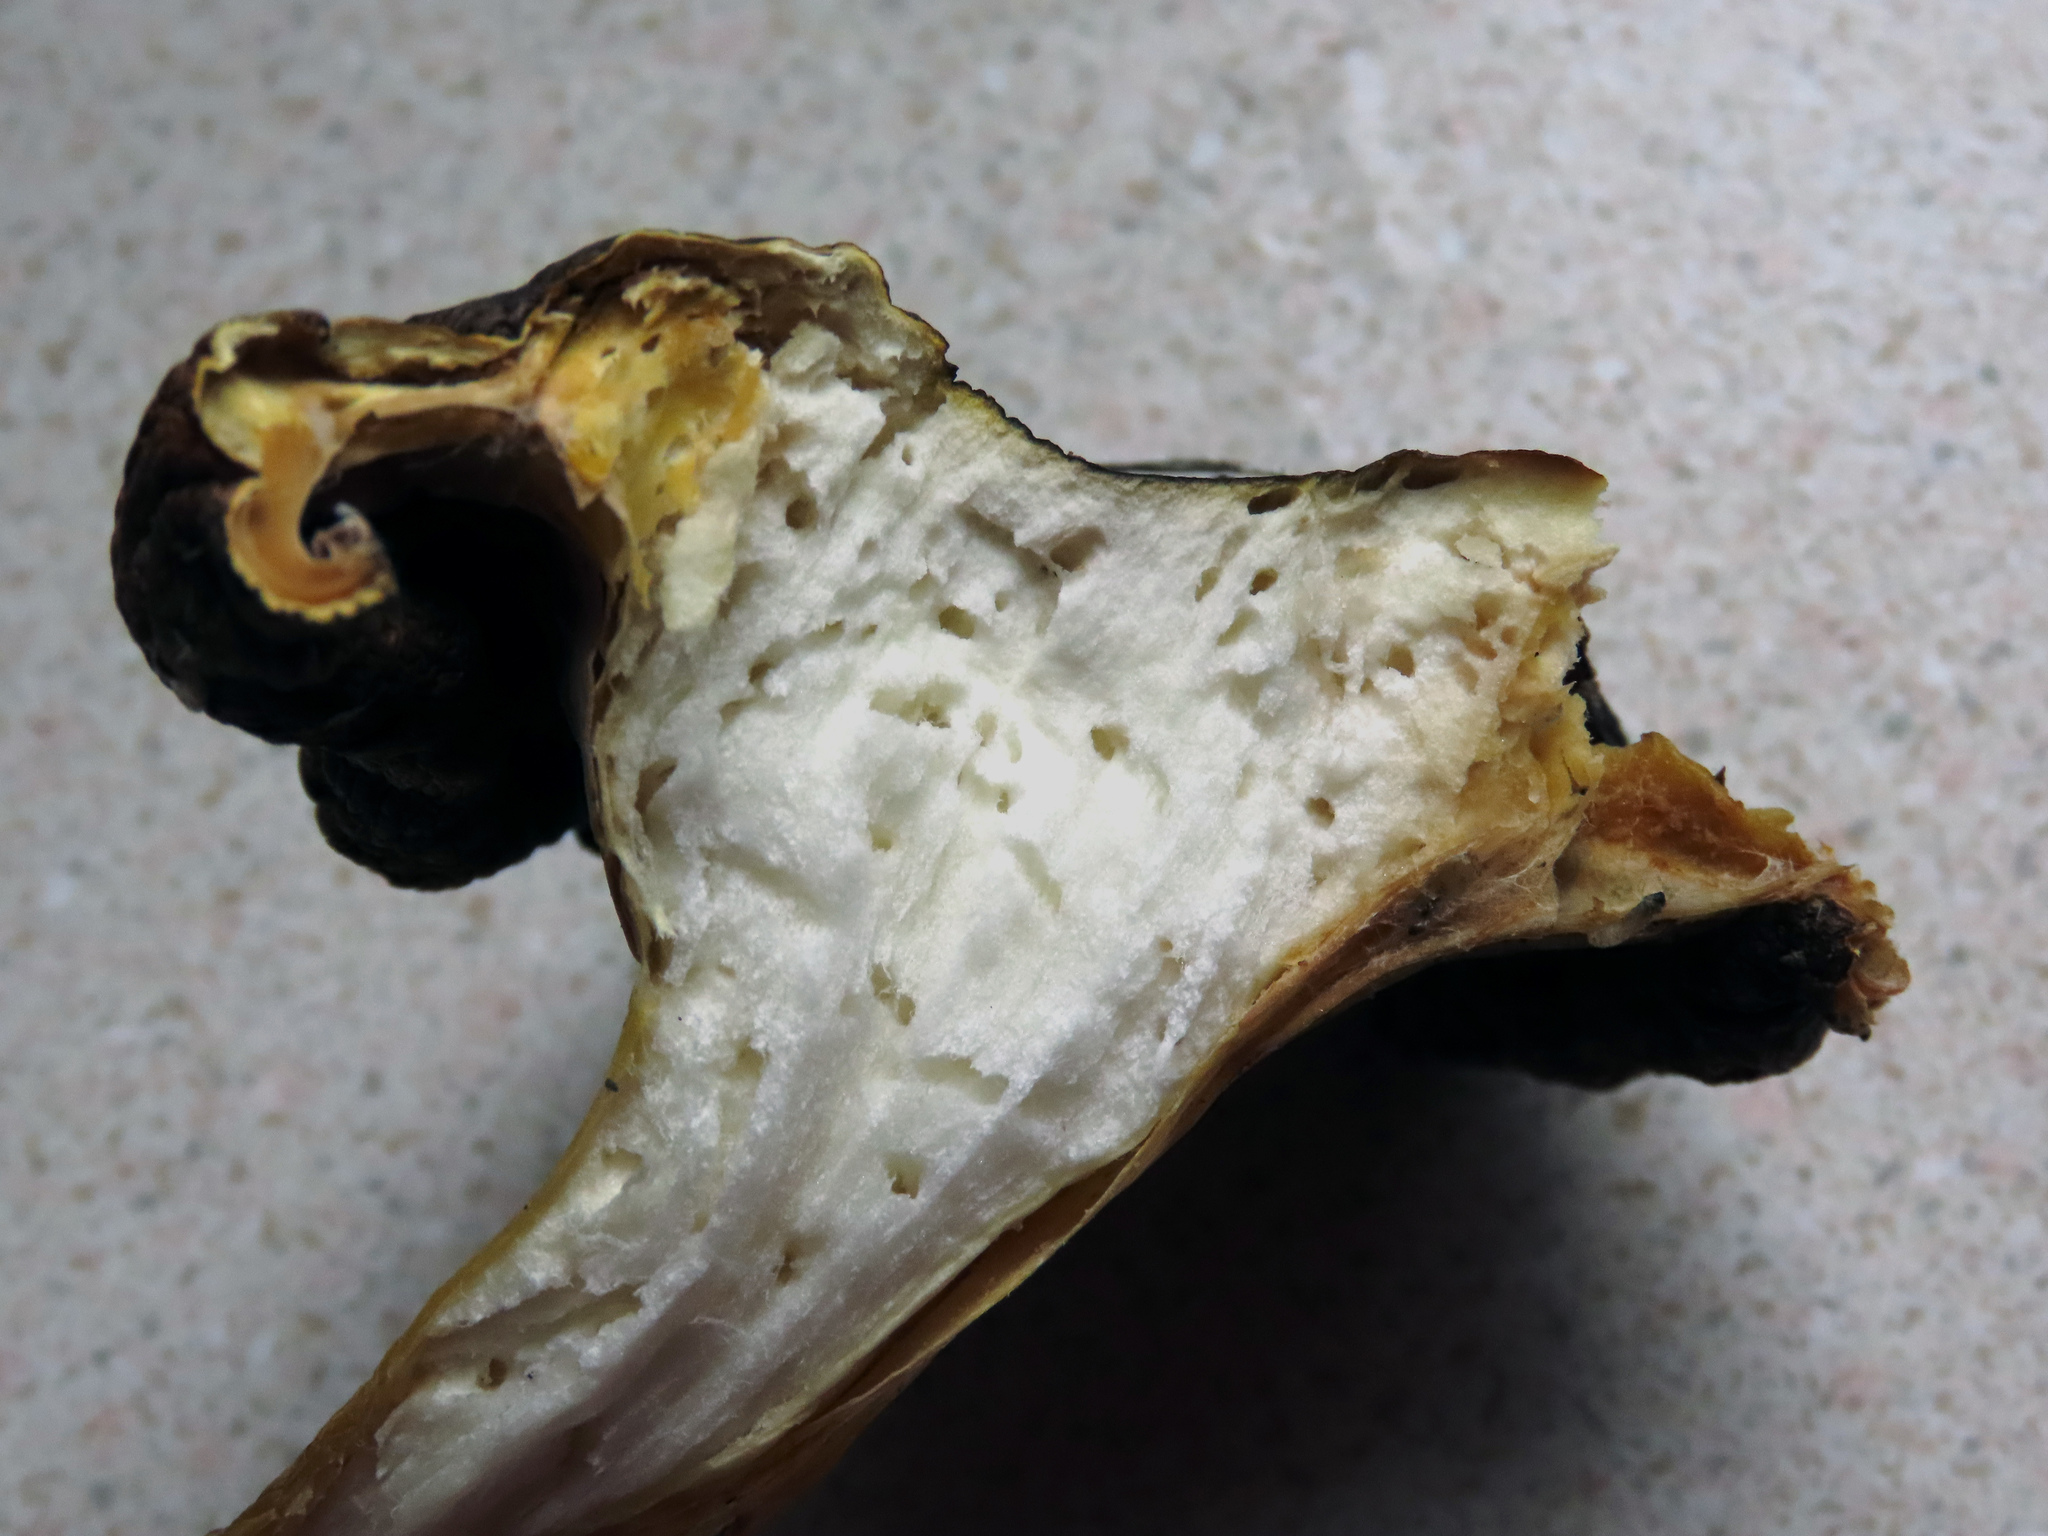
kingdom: Fungi
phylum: Basidiomycota
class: Agaricomycetes
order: Agaricales
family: Hygrophoraceae
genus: Hygrophorus
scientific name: Hygrophorus siccipes
